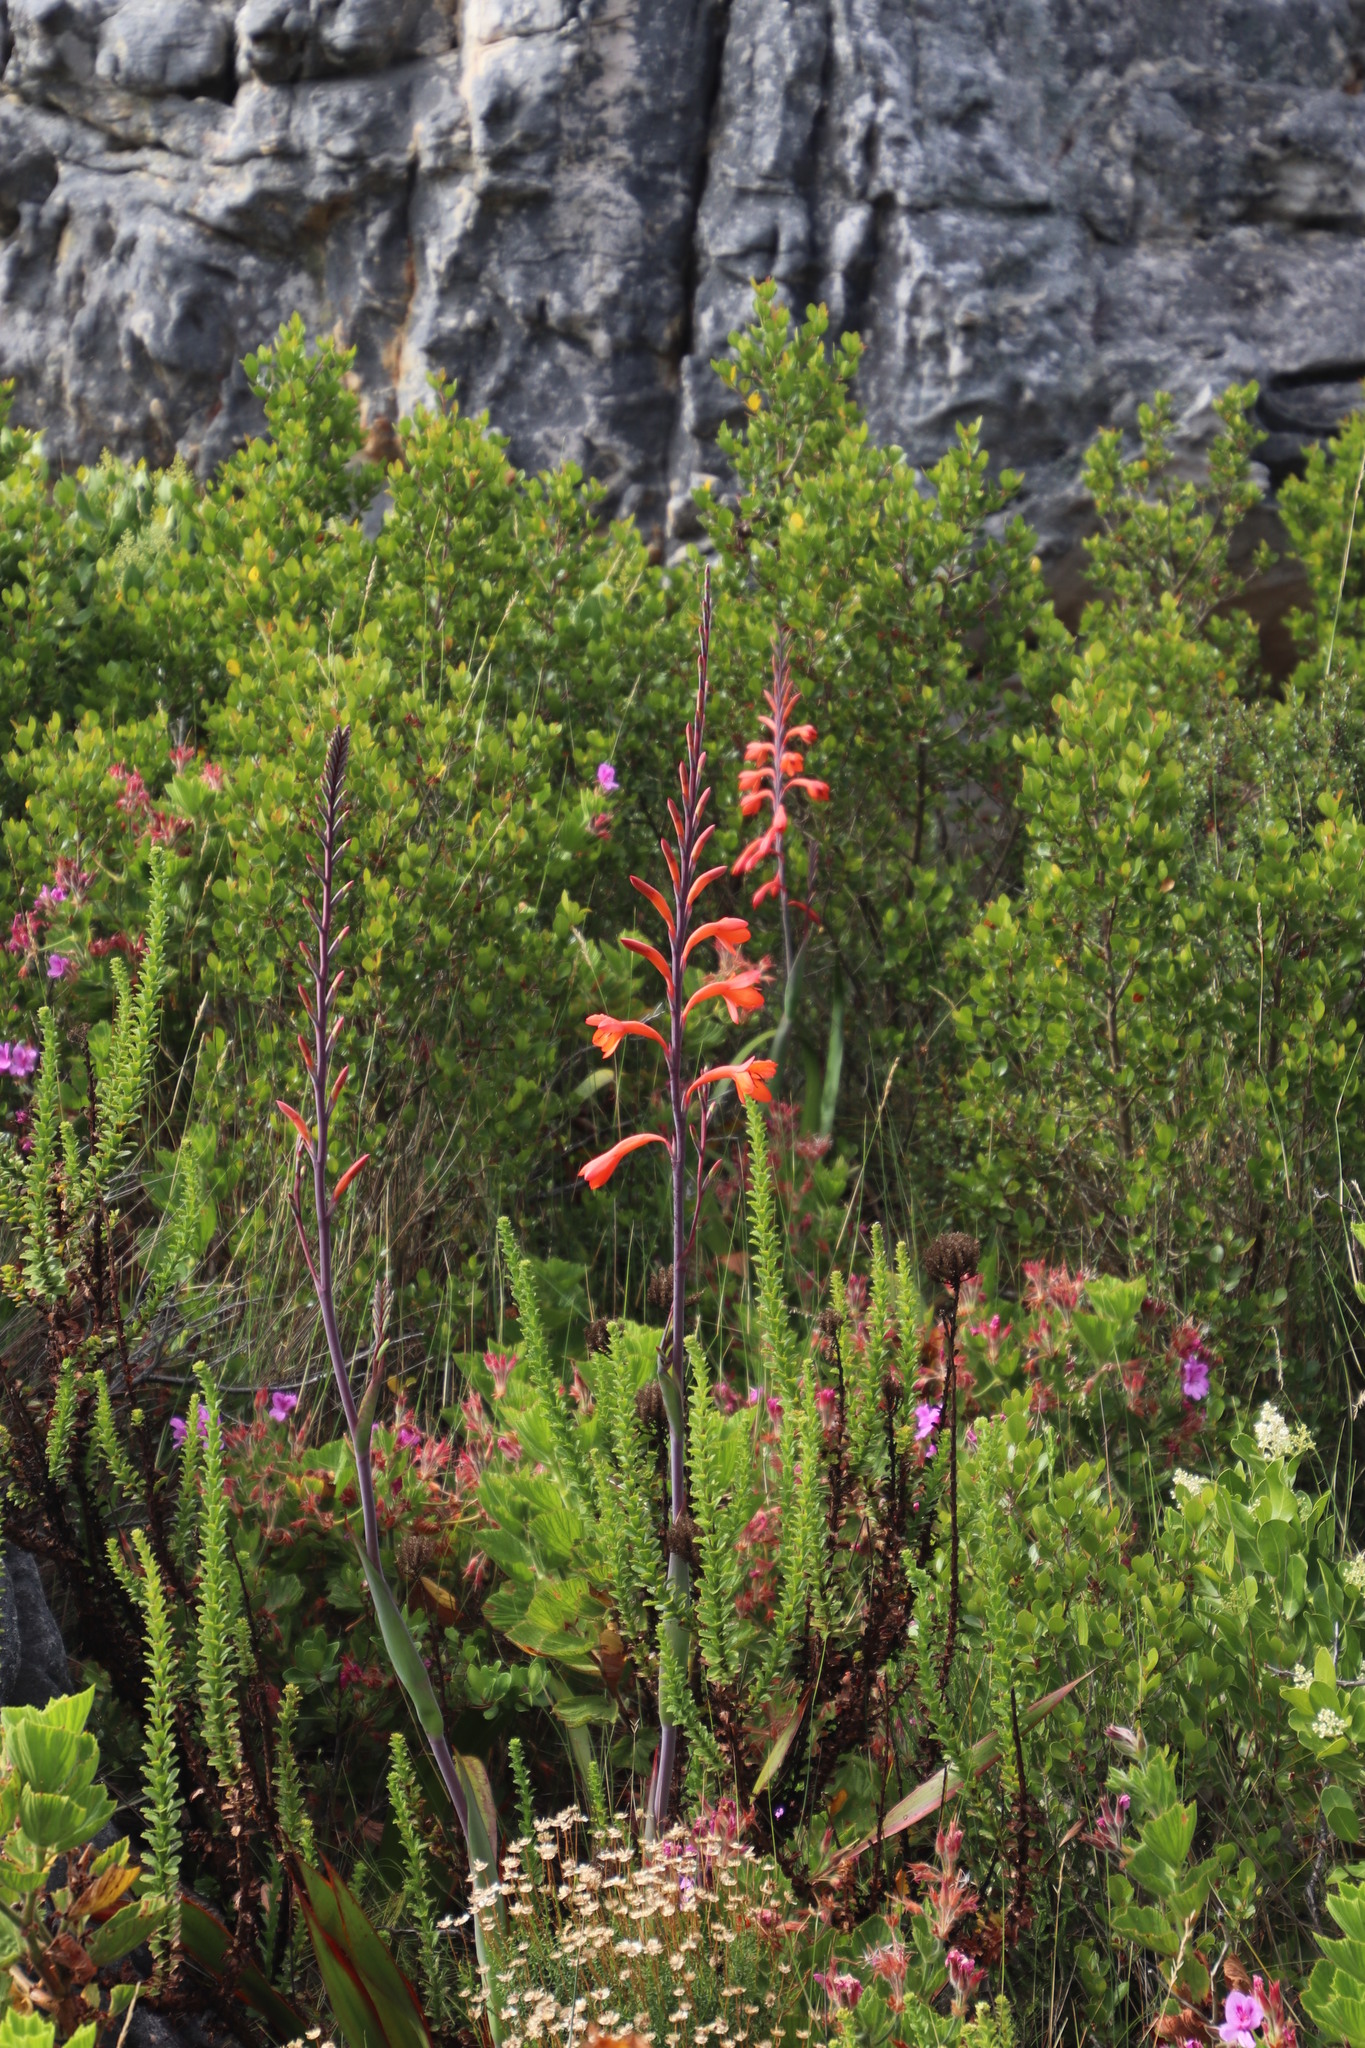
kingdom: Plantae
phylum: Tracheophyta
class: Liliopsida
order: Asparagales
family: Iridaceae
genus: Watsonia
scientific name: Watsonia tabularis
